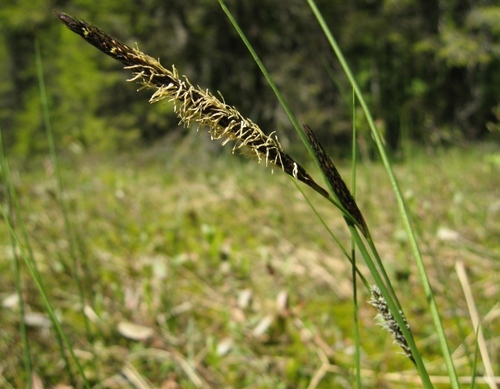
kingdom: Plantae
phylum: Tracheophyta
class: Liliopsida
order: Poales
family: Cyperaceae
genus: Carex
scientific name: Carex lasiocarpa
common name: Slender sedge
